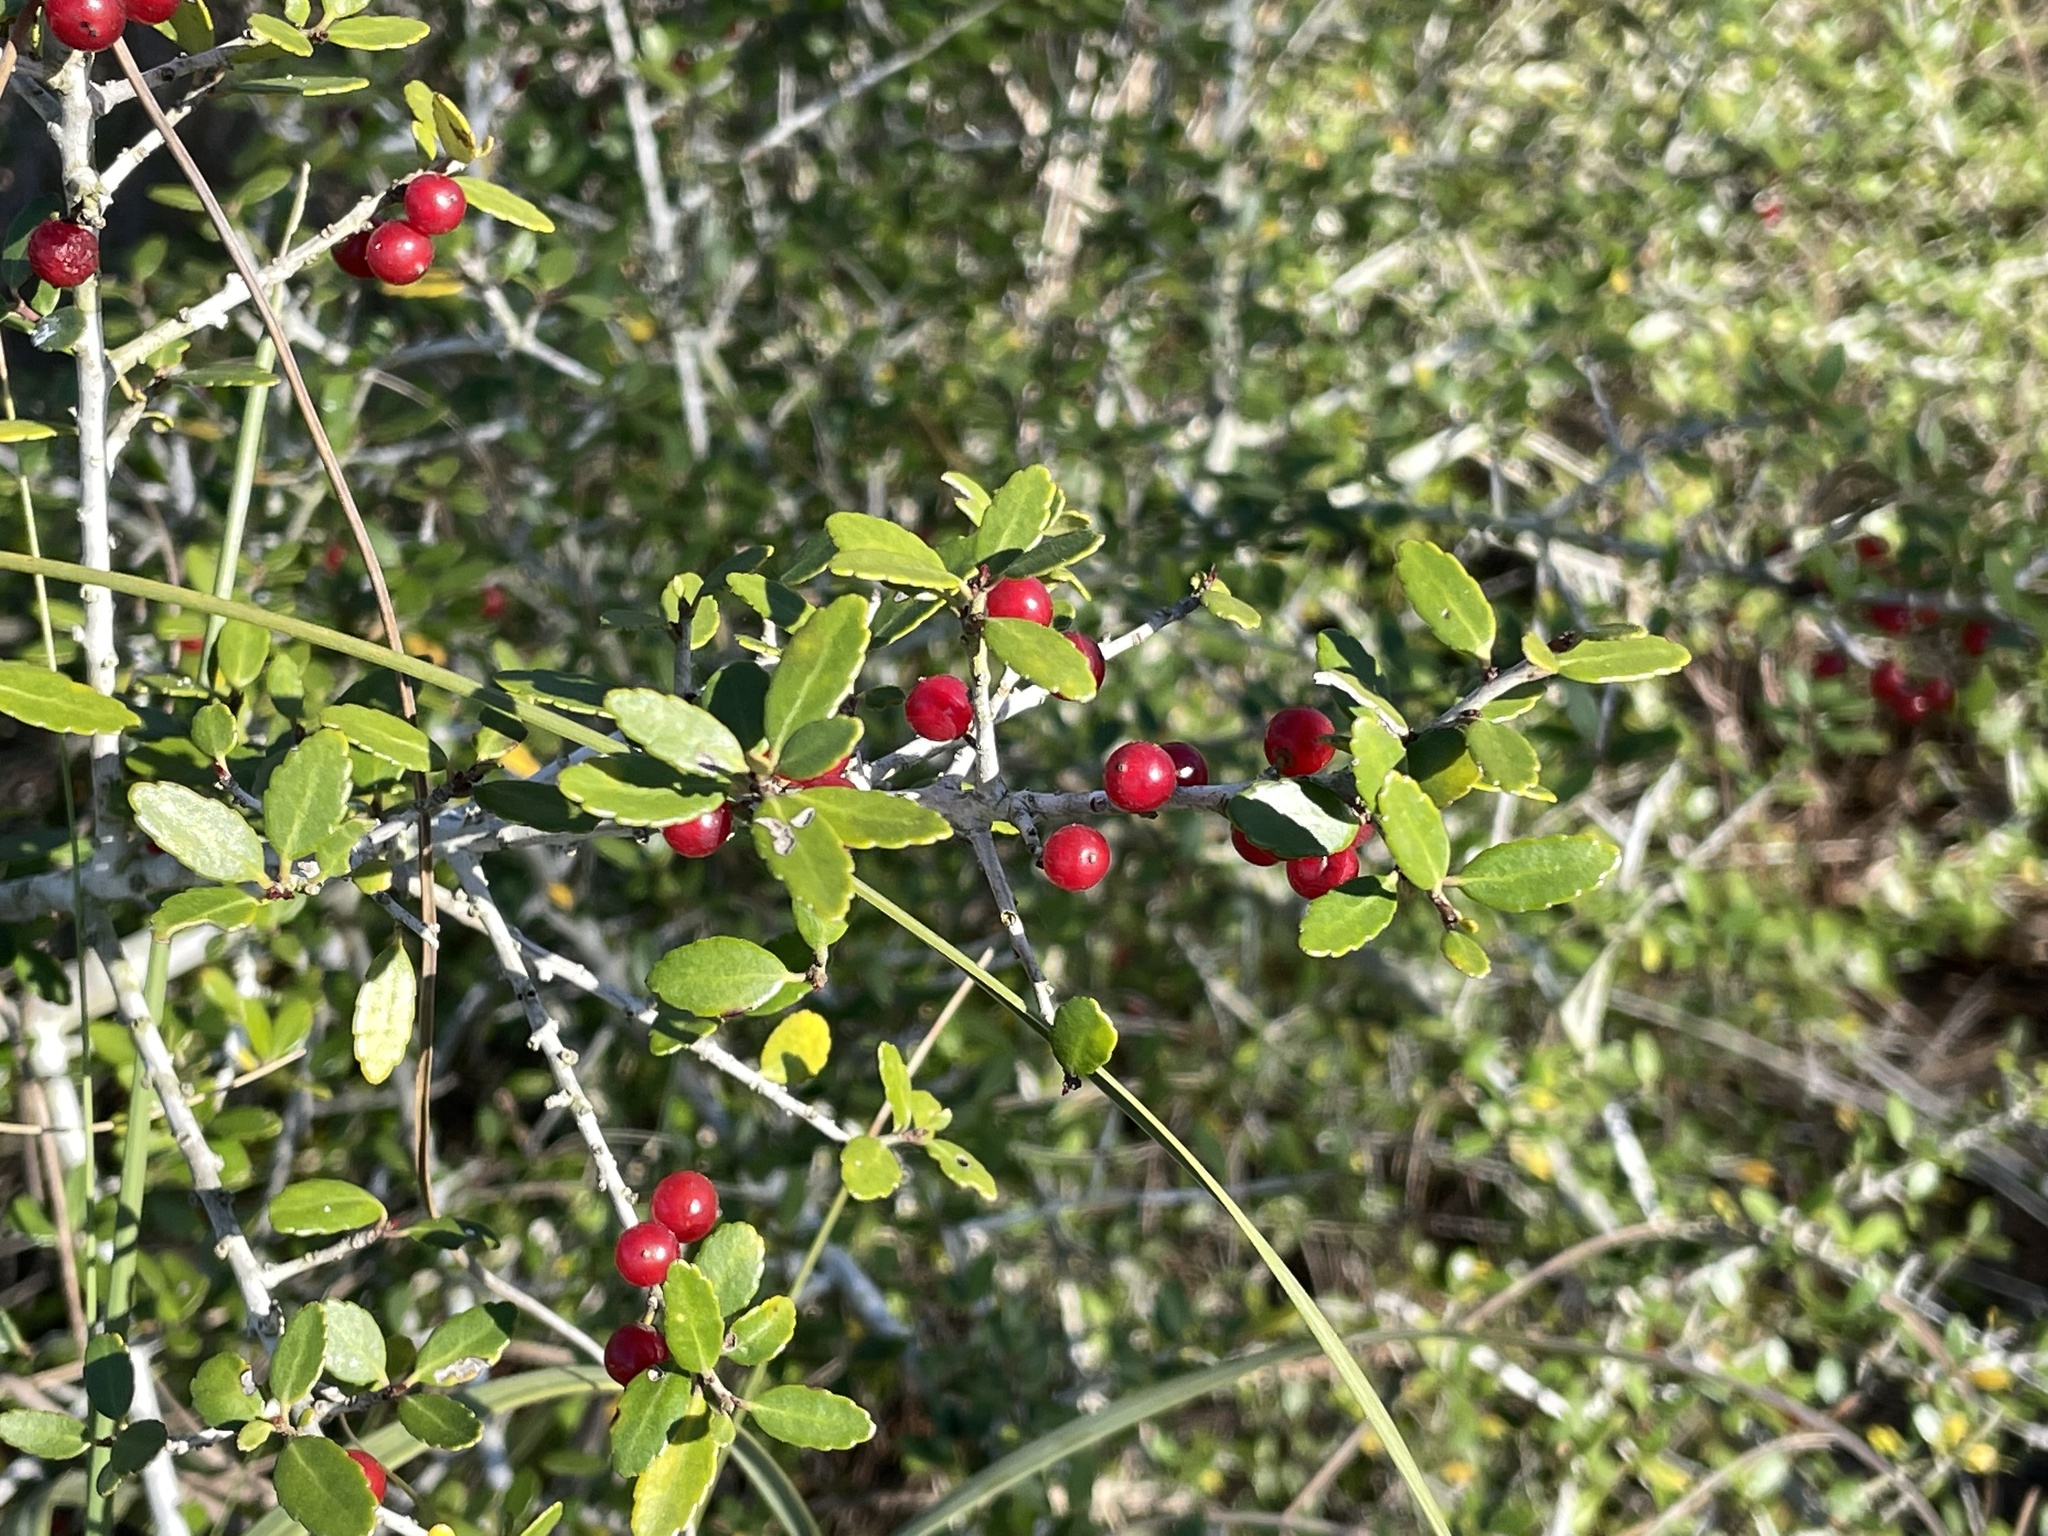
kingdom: Plantae
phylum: Tracheophyta
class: Magnoliopsida
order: Aquifoliales
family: Aquifoliaceae
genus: Ilex
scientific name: Ilex vomitoria
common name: Yaupon holly
